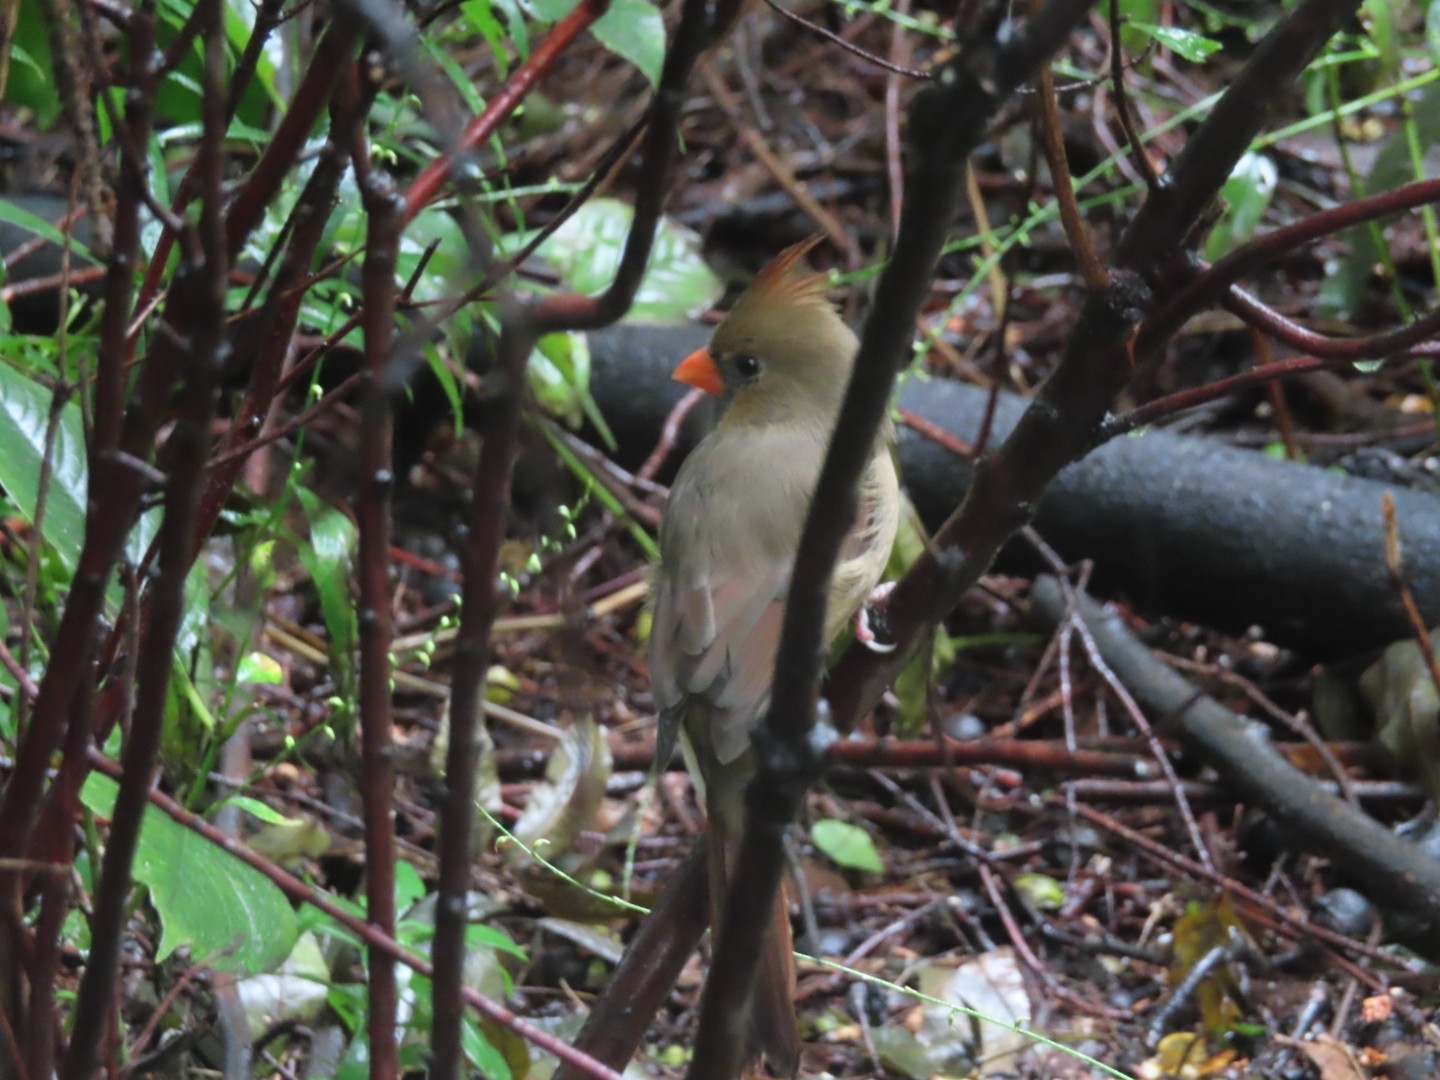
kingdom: Animalia
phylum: Chordata
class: Aves
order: Passeriformes
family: Cardinalidae
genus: Cardinalis
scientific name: Cardinalis cardinalis
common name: Northern cardinal
